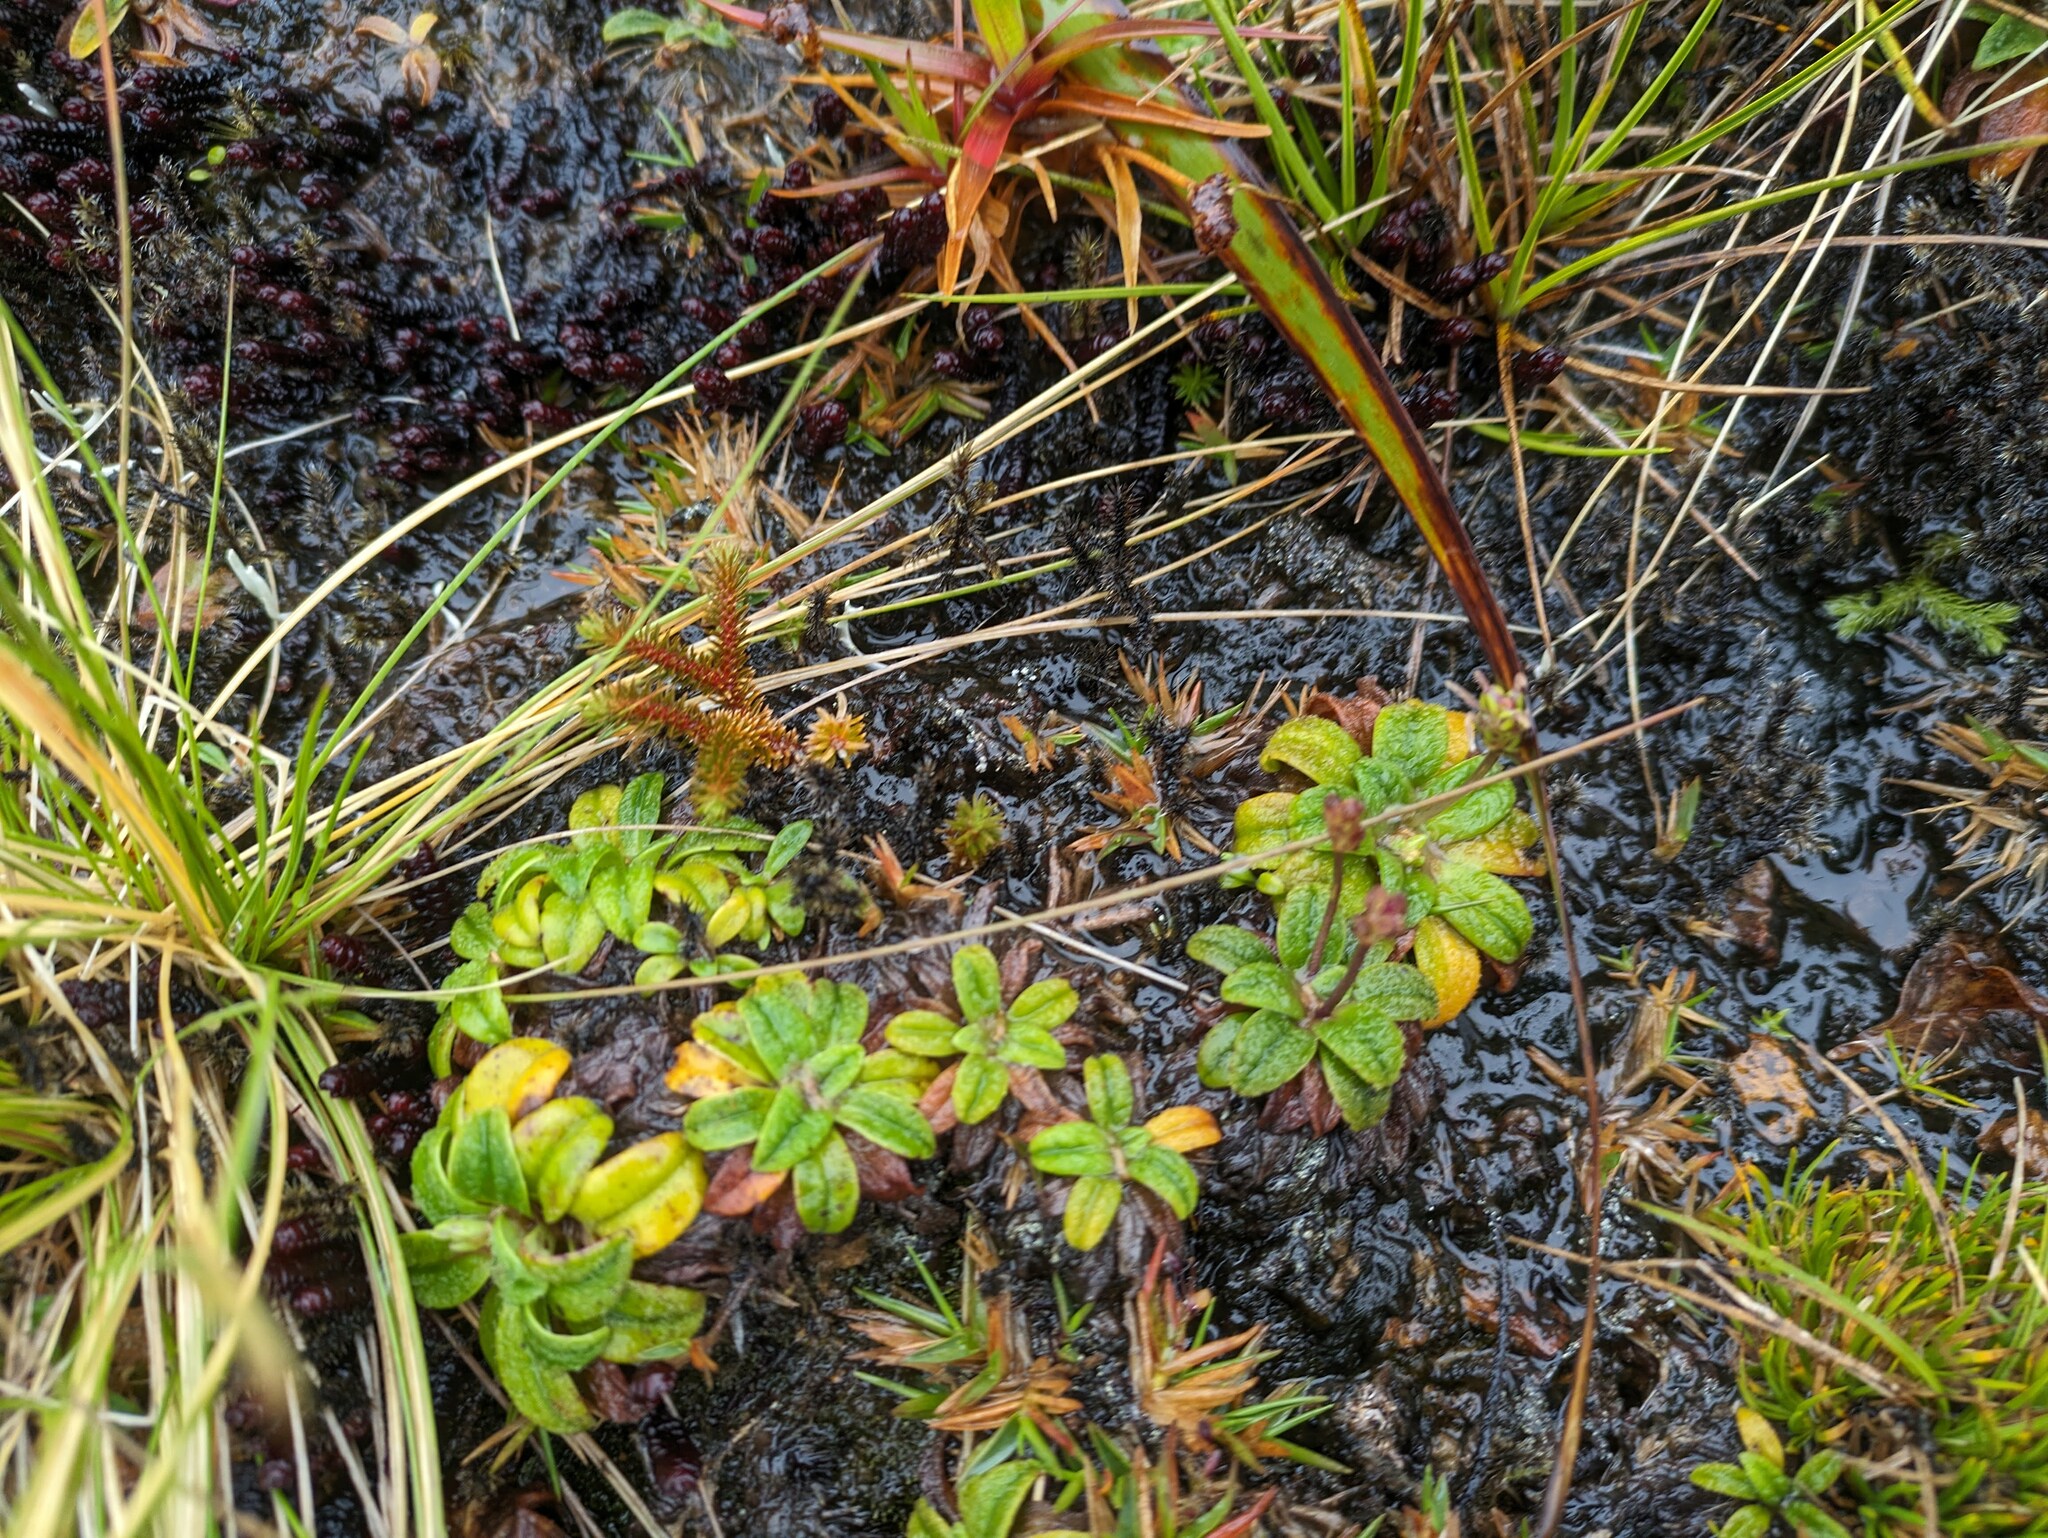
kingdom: Plantae
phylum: Tracheophyta
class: Magnoliopsida
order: Lamiales
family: Plantaginaceae
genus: Plantago
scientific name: Plantago pachyphylla
